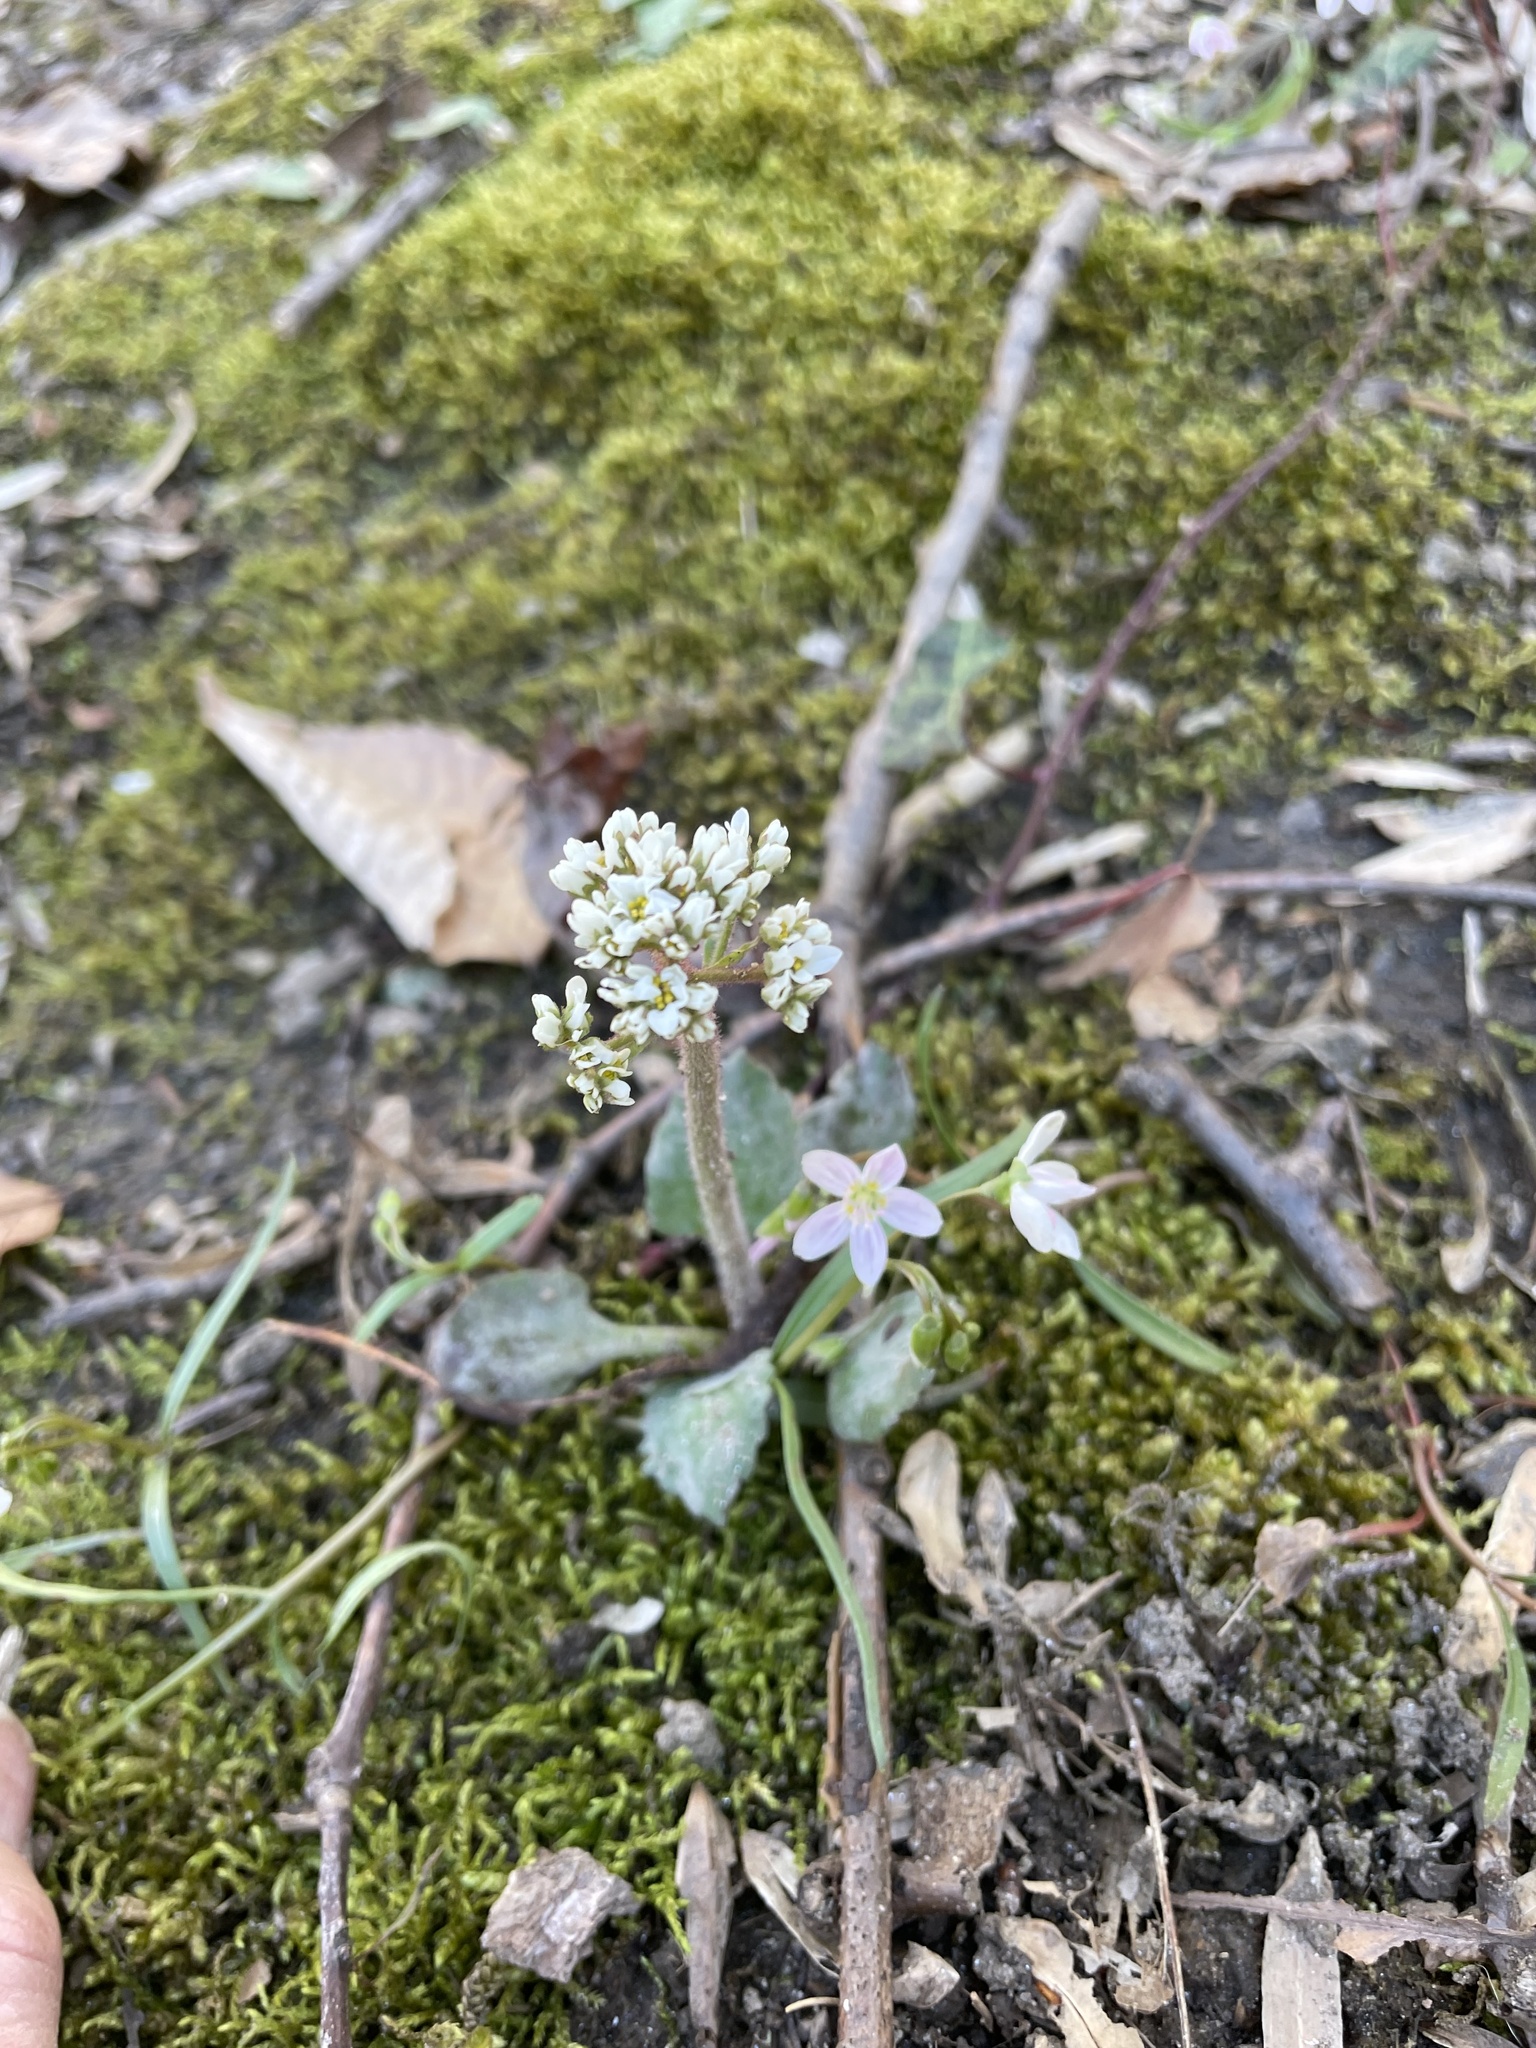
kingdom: Plantae
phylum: Tracheophyta
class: Magnoliopsida
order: Saxifragales
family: Saxifragaceae
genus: Micranthes
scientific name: Micranthes virginiensis
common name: Early saxifrage
